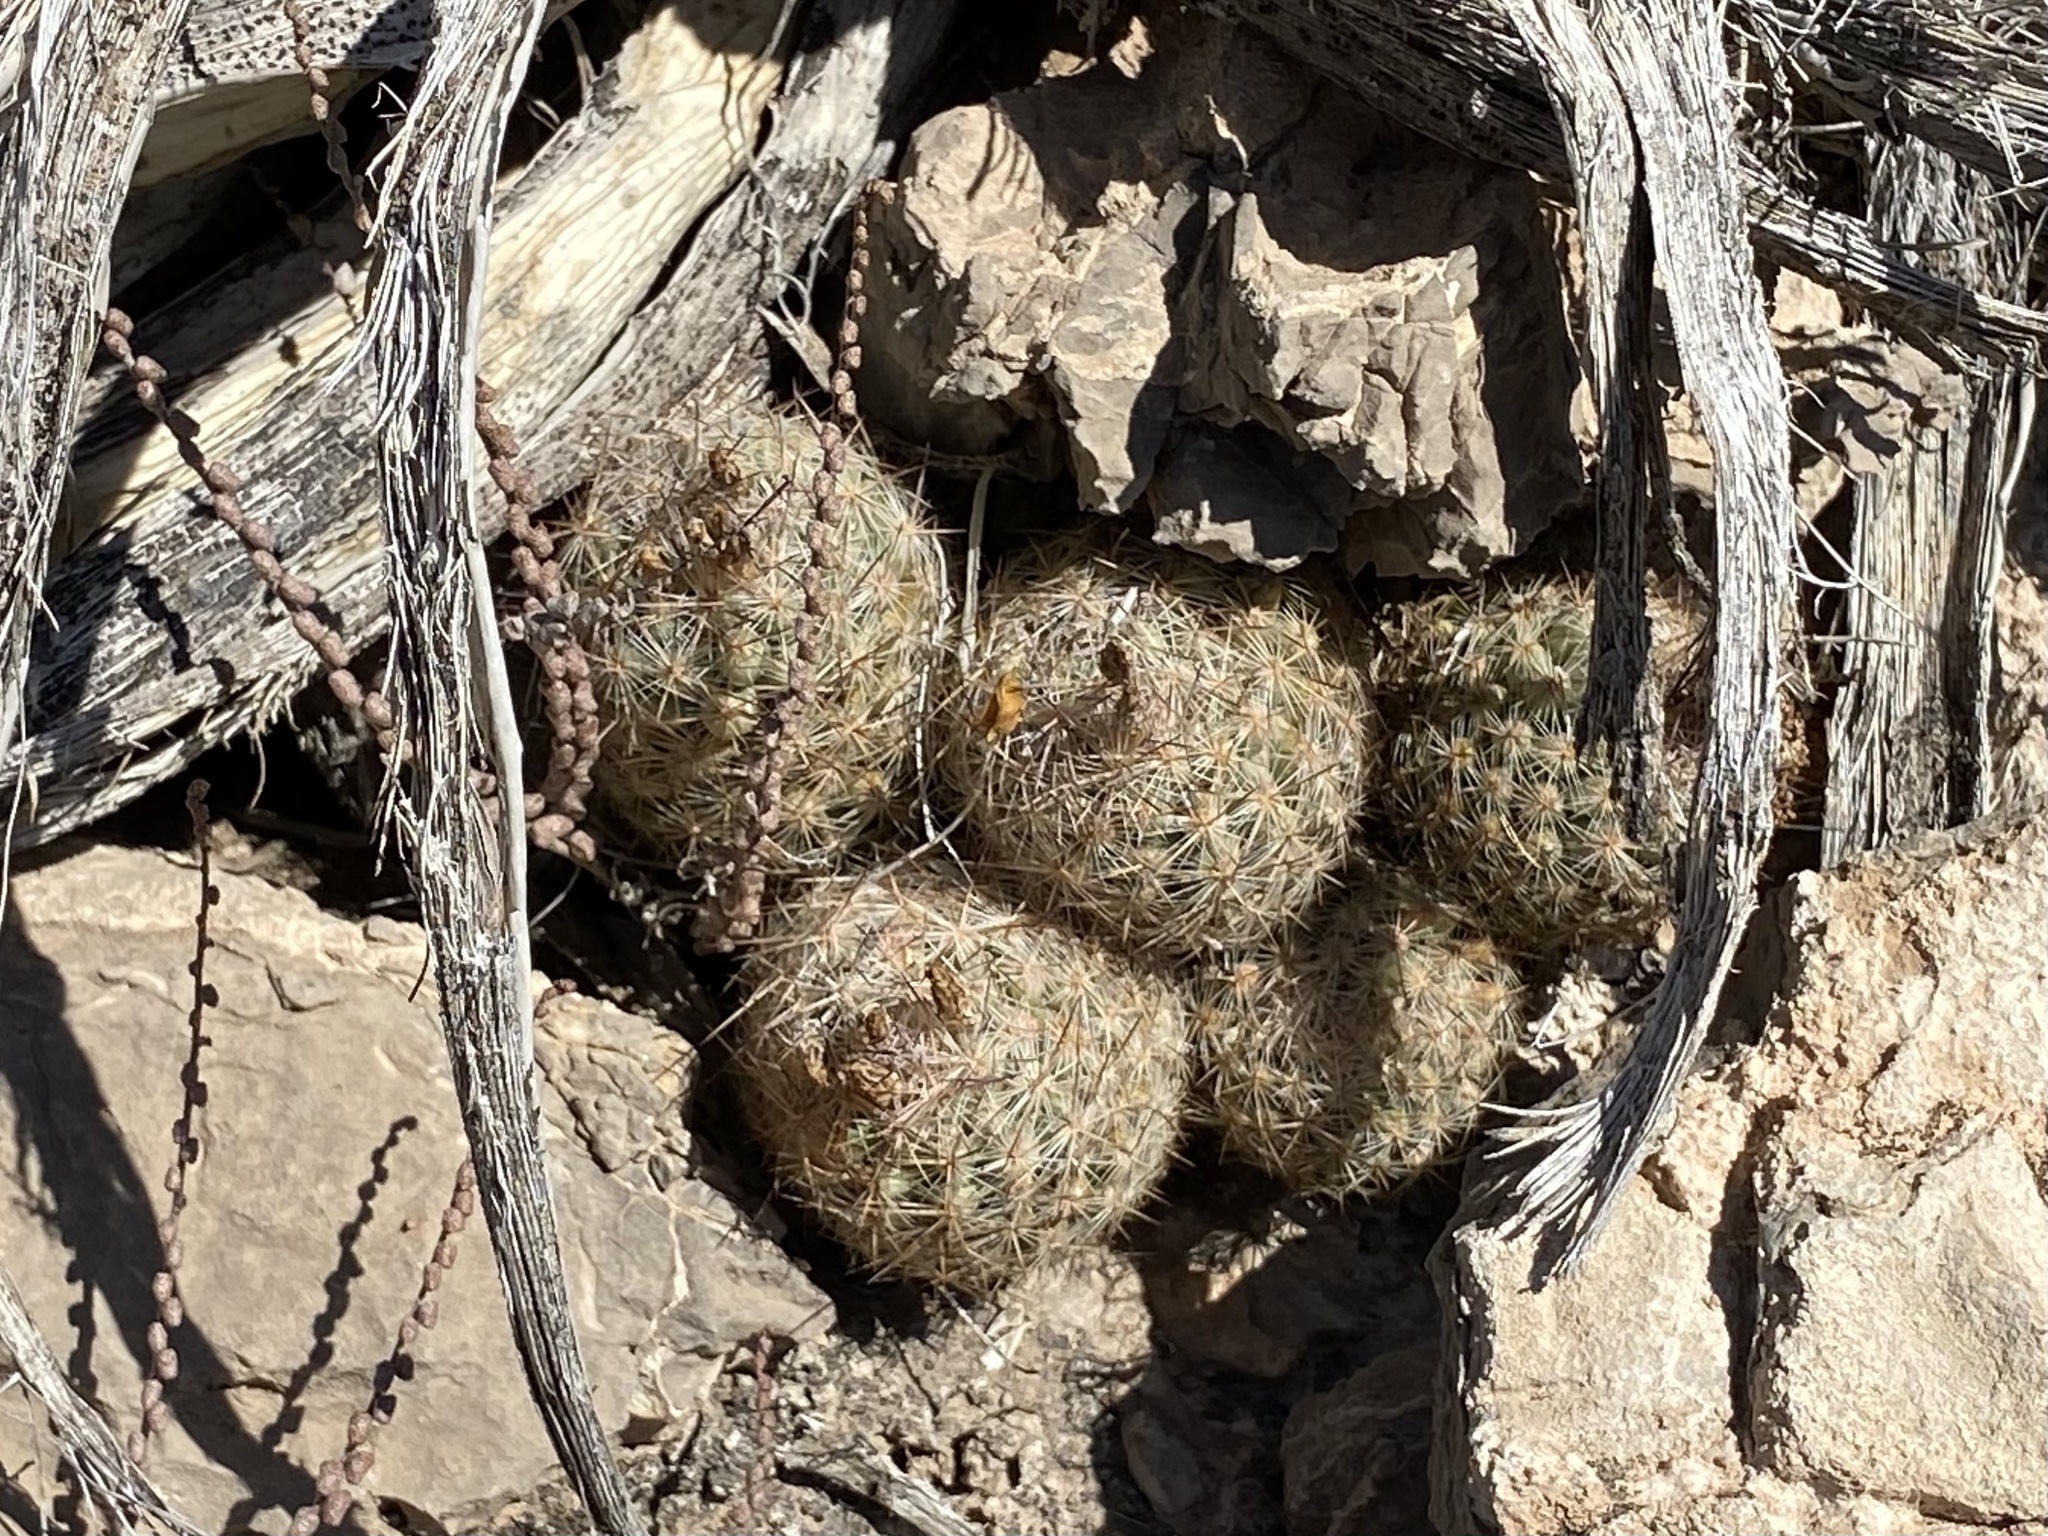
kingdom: Plantae
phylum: Tracheophyta
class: Magnoliopsida
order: Caryophyllales
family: Cactaceae
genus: Pelecyphora
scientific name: Pelecyphora tuberculosa
